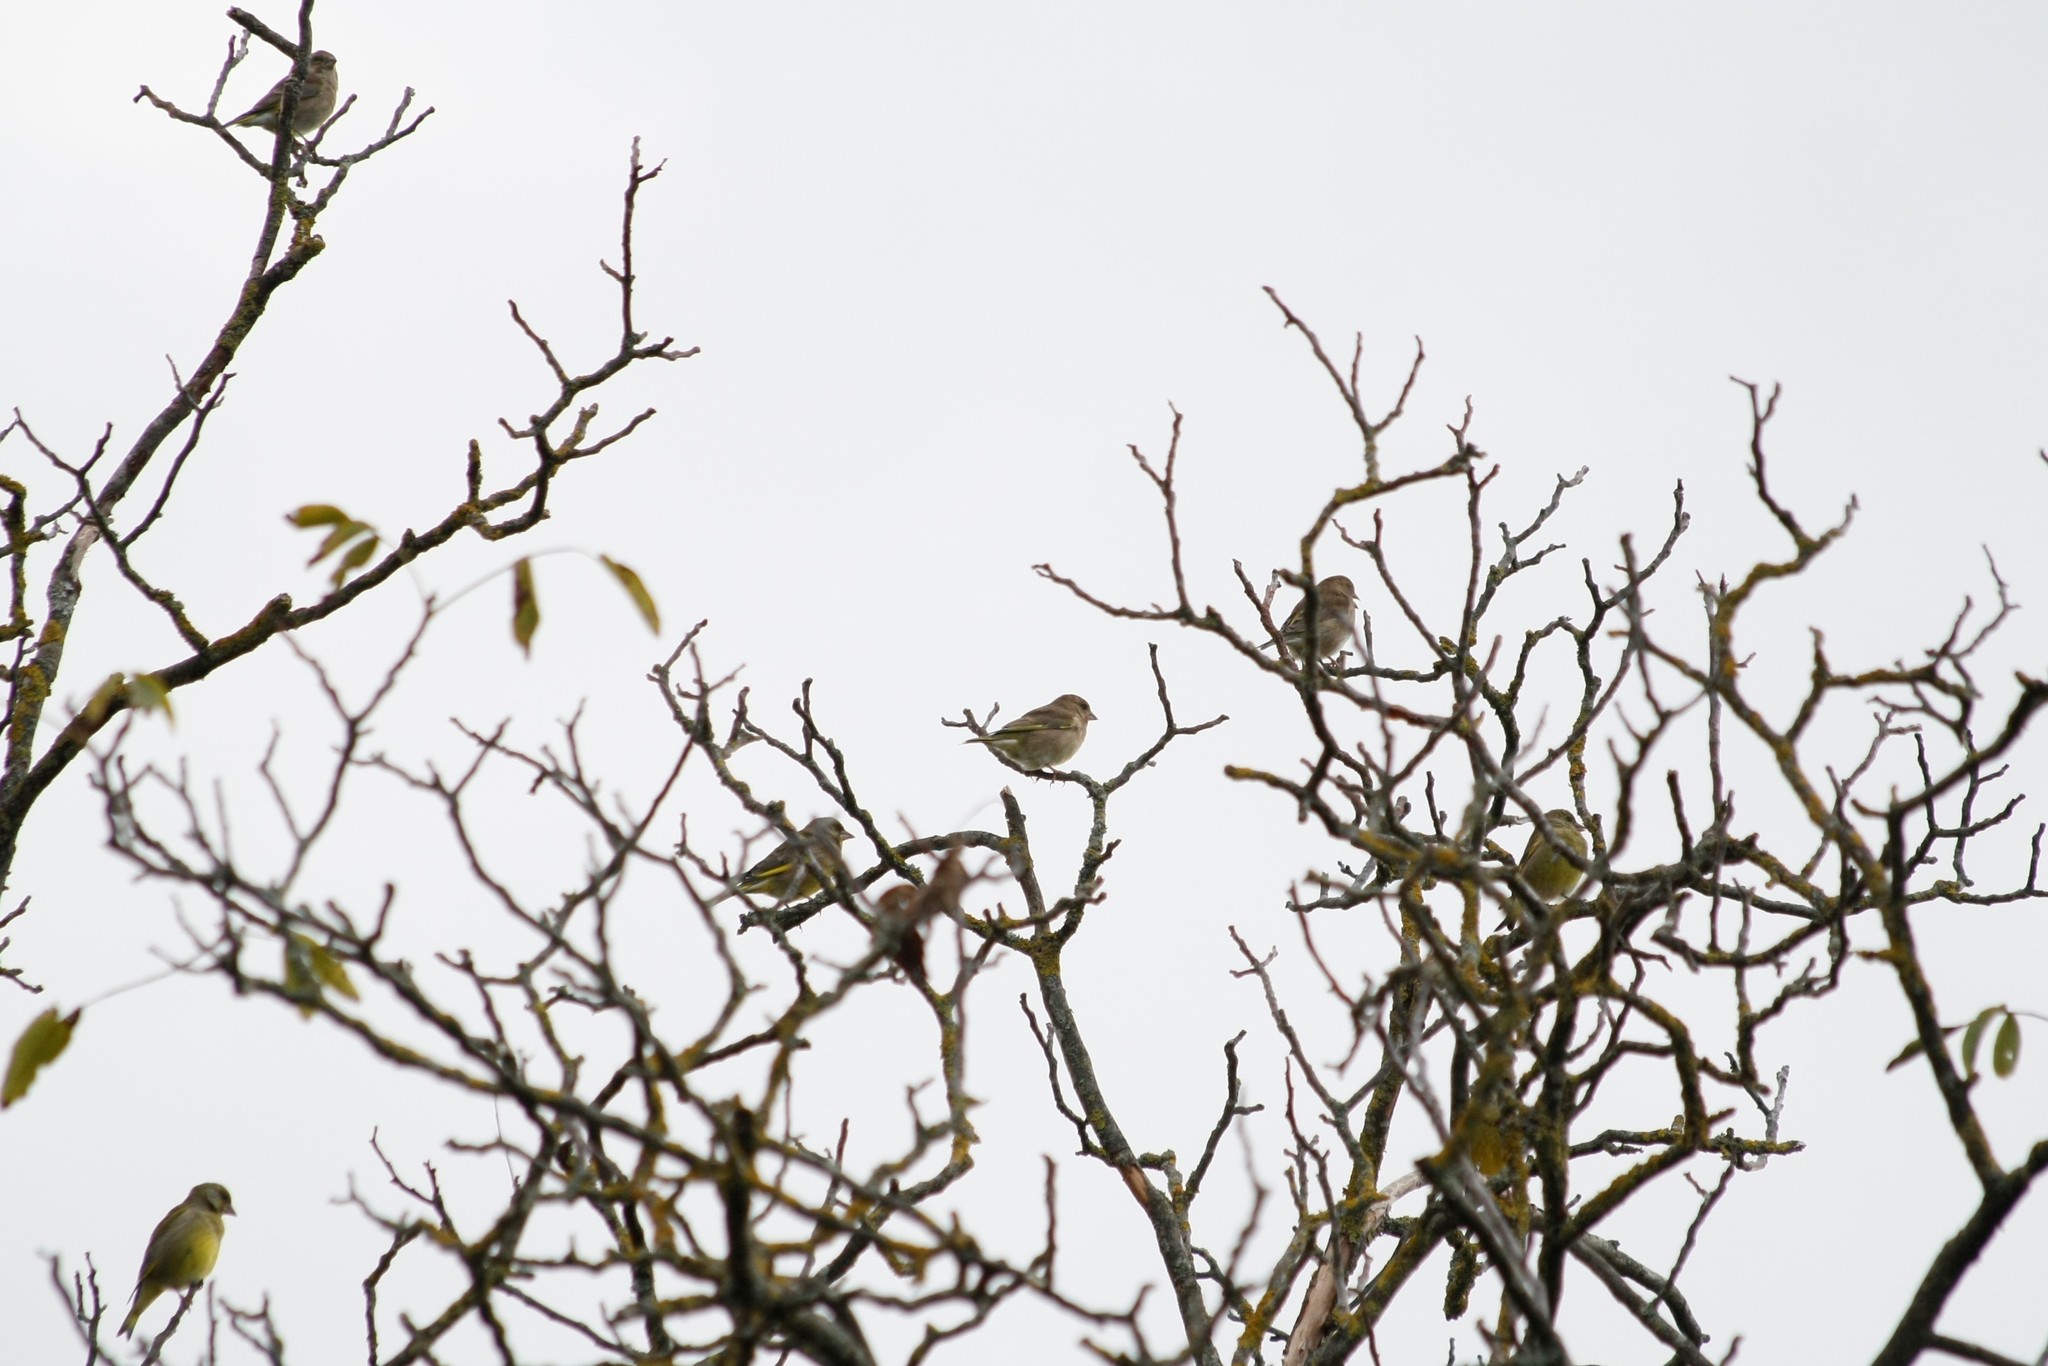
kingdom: Plantae
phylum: Tracheophyta
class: Liliopsida
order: Poales
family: Poaceae
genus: Chloris
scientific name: Chloris chloris
